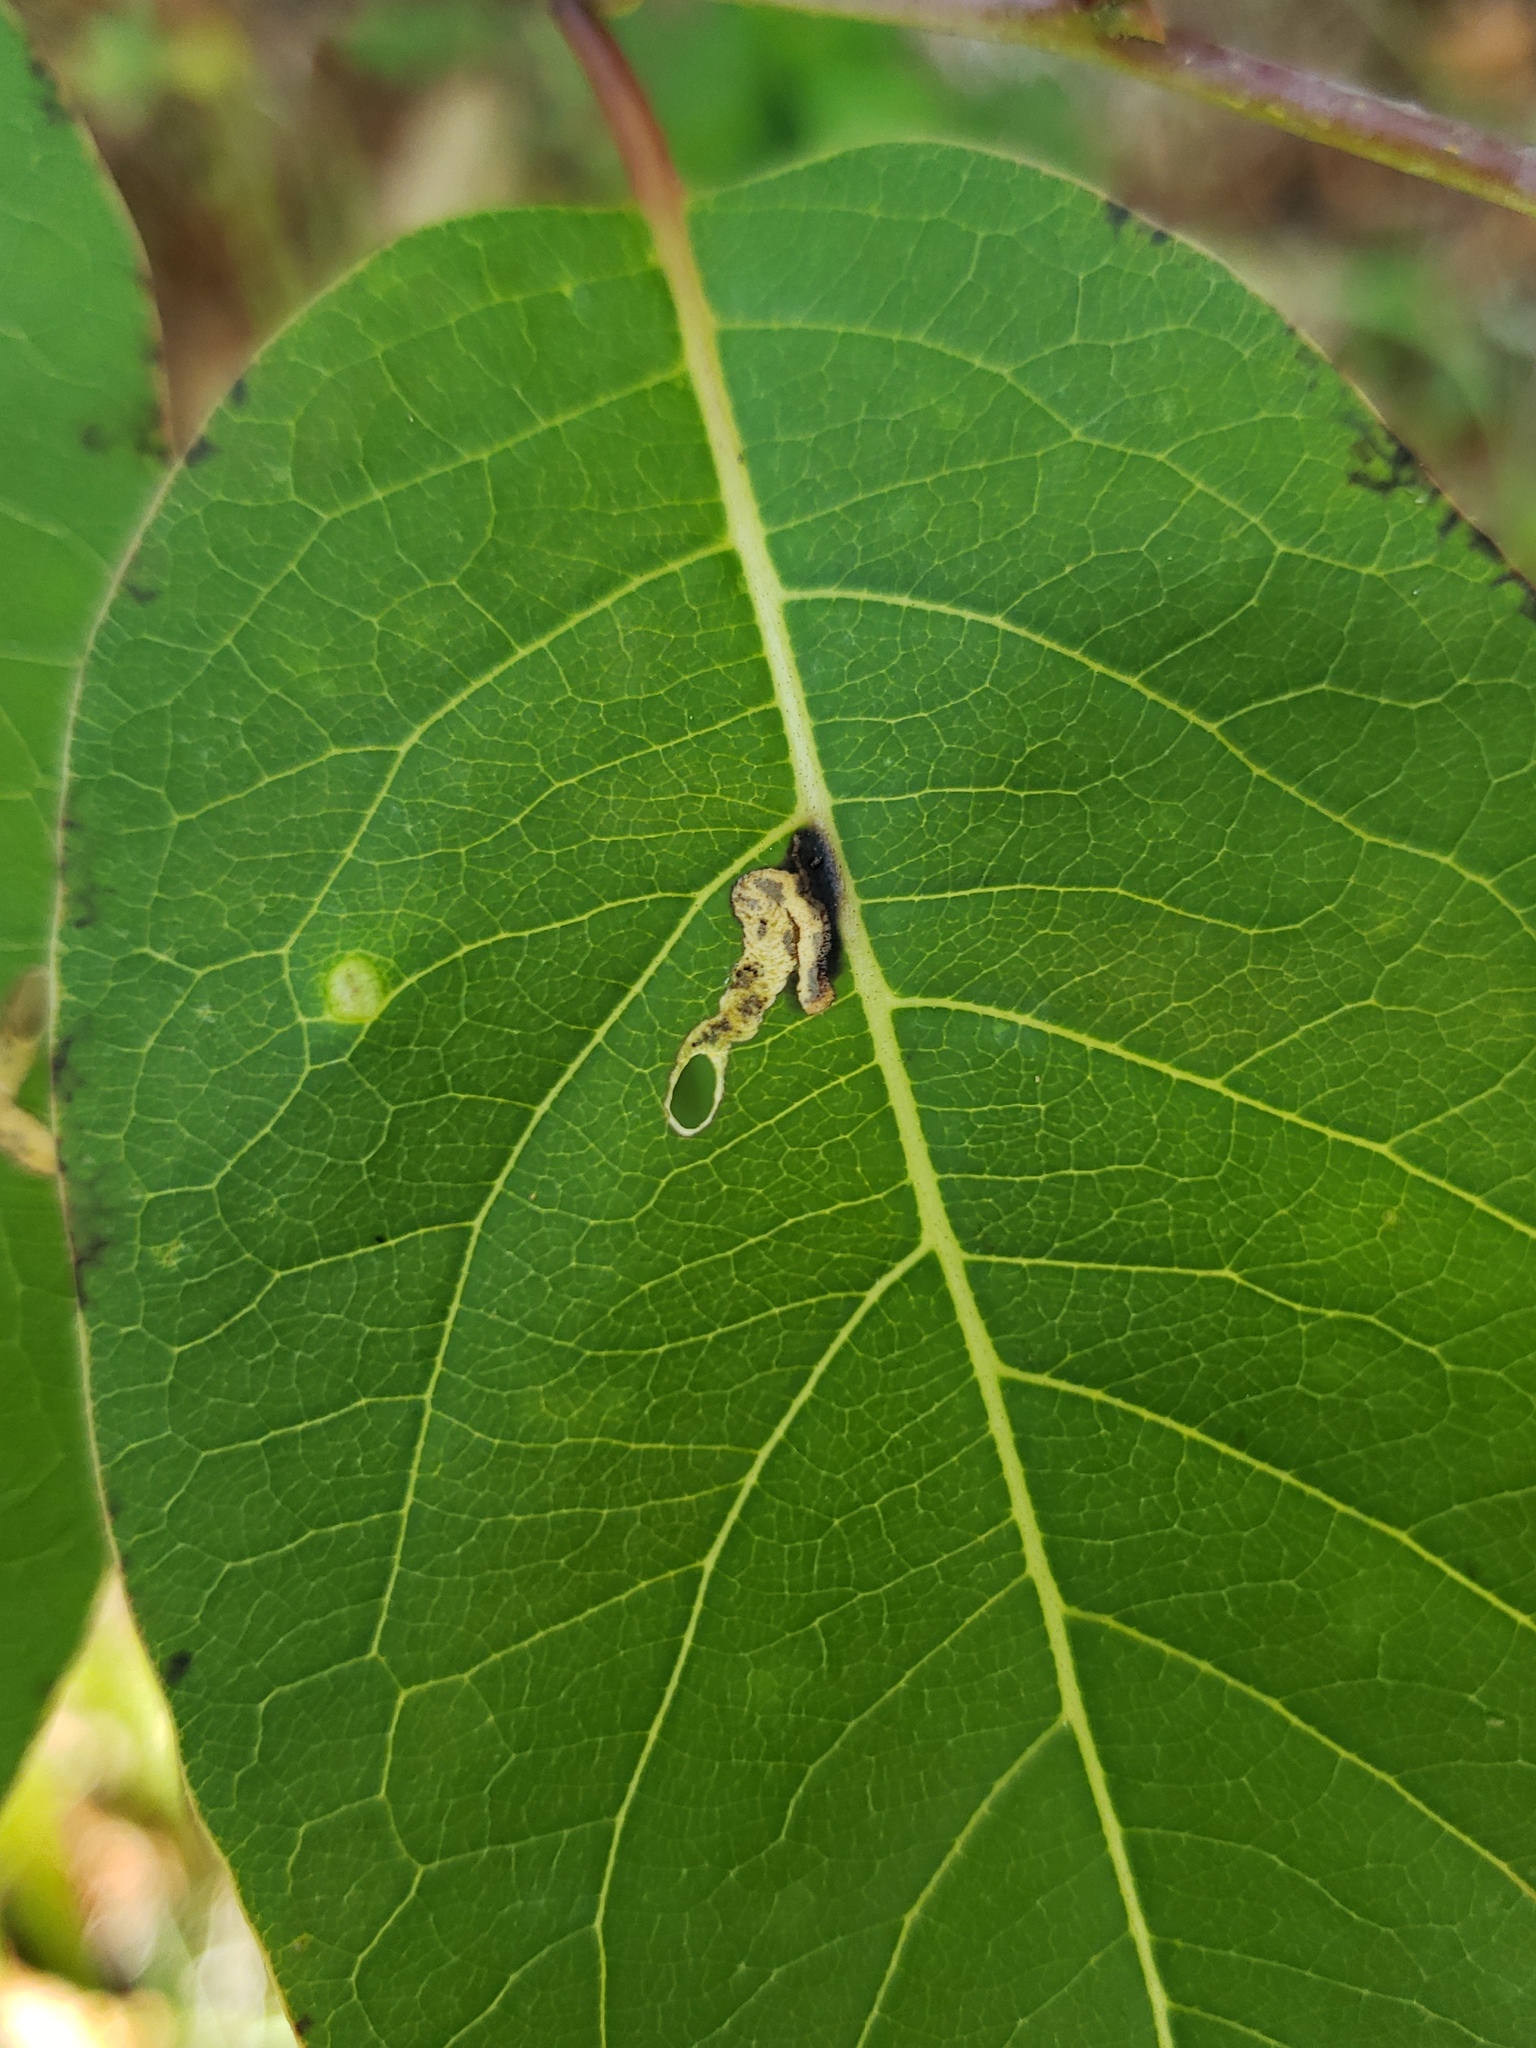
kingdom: Animalia
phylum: Arthropoda
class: Insecta
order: Lepidoptera
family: Heliozelidae
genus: Coptodisca
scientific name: Coptodisca diospyriella
